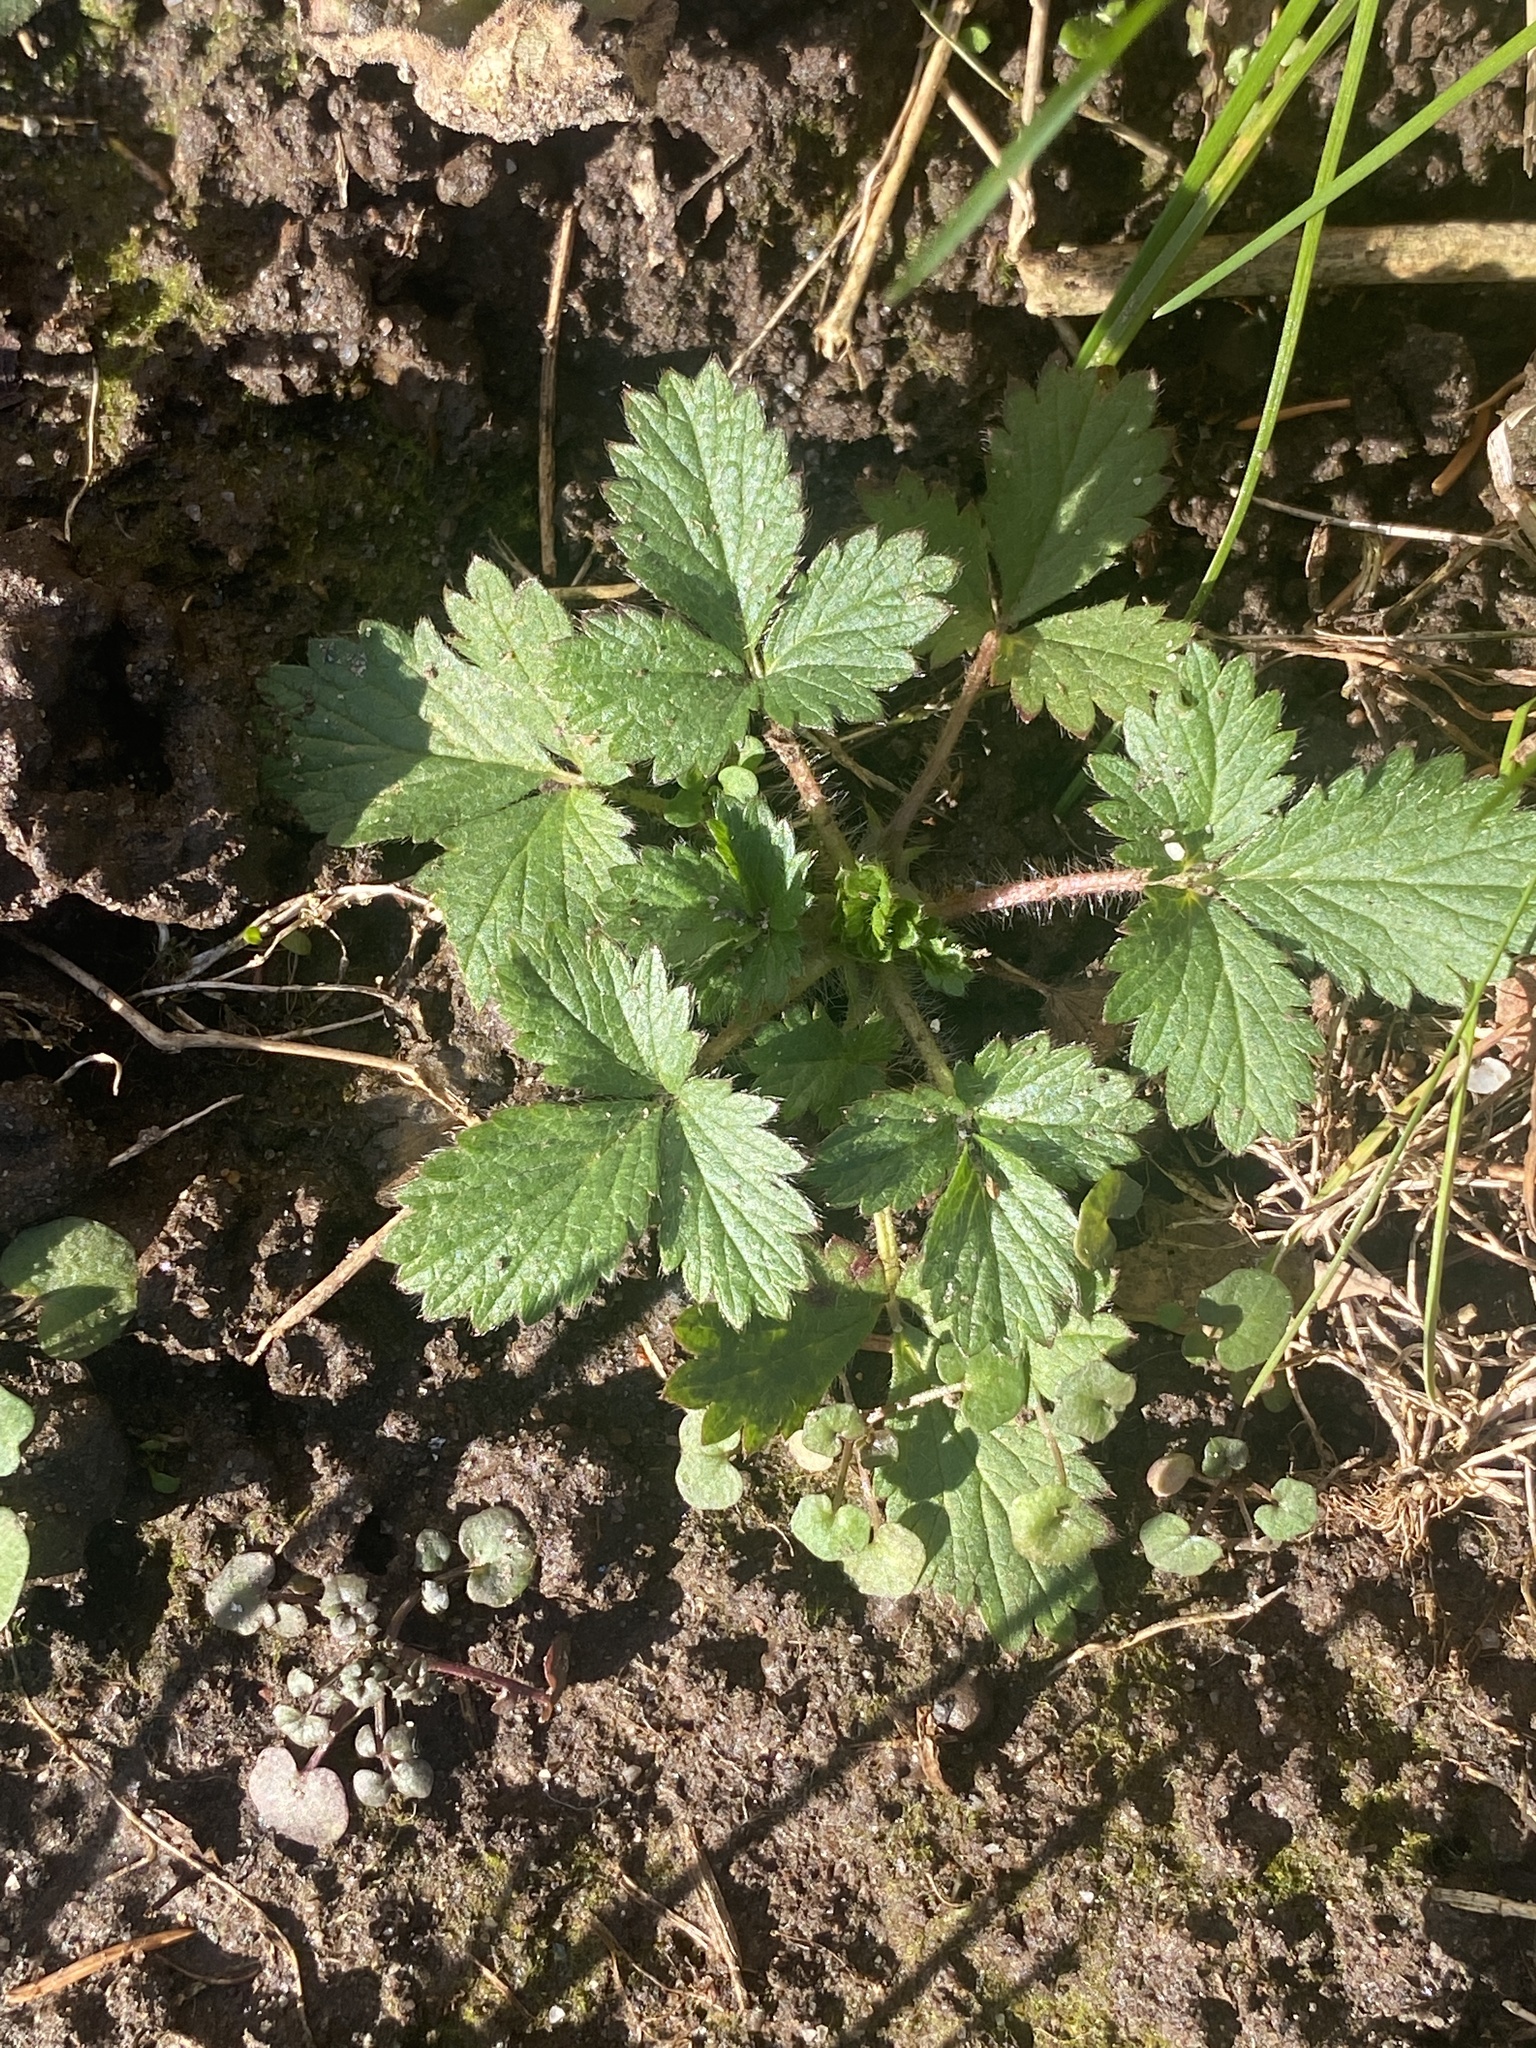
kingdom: Plantae
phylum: Tracheophyta
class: Magnoliopsida
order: Rosales
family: Rosaceae
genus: Potentilla
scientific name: Potentilla norvegica
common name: Ternate-leaved cinquefoil
